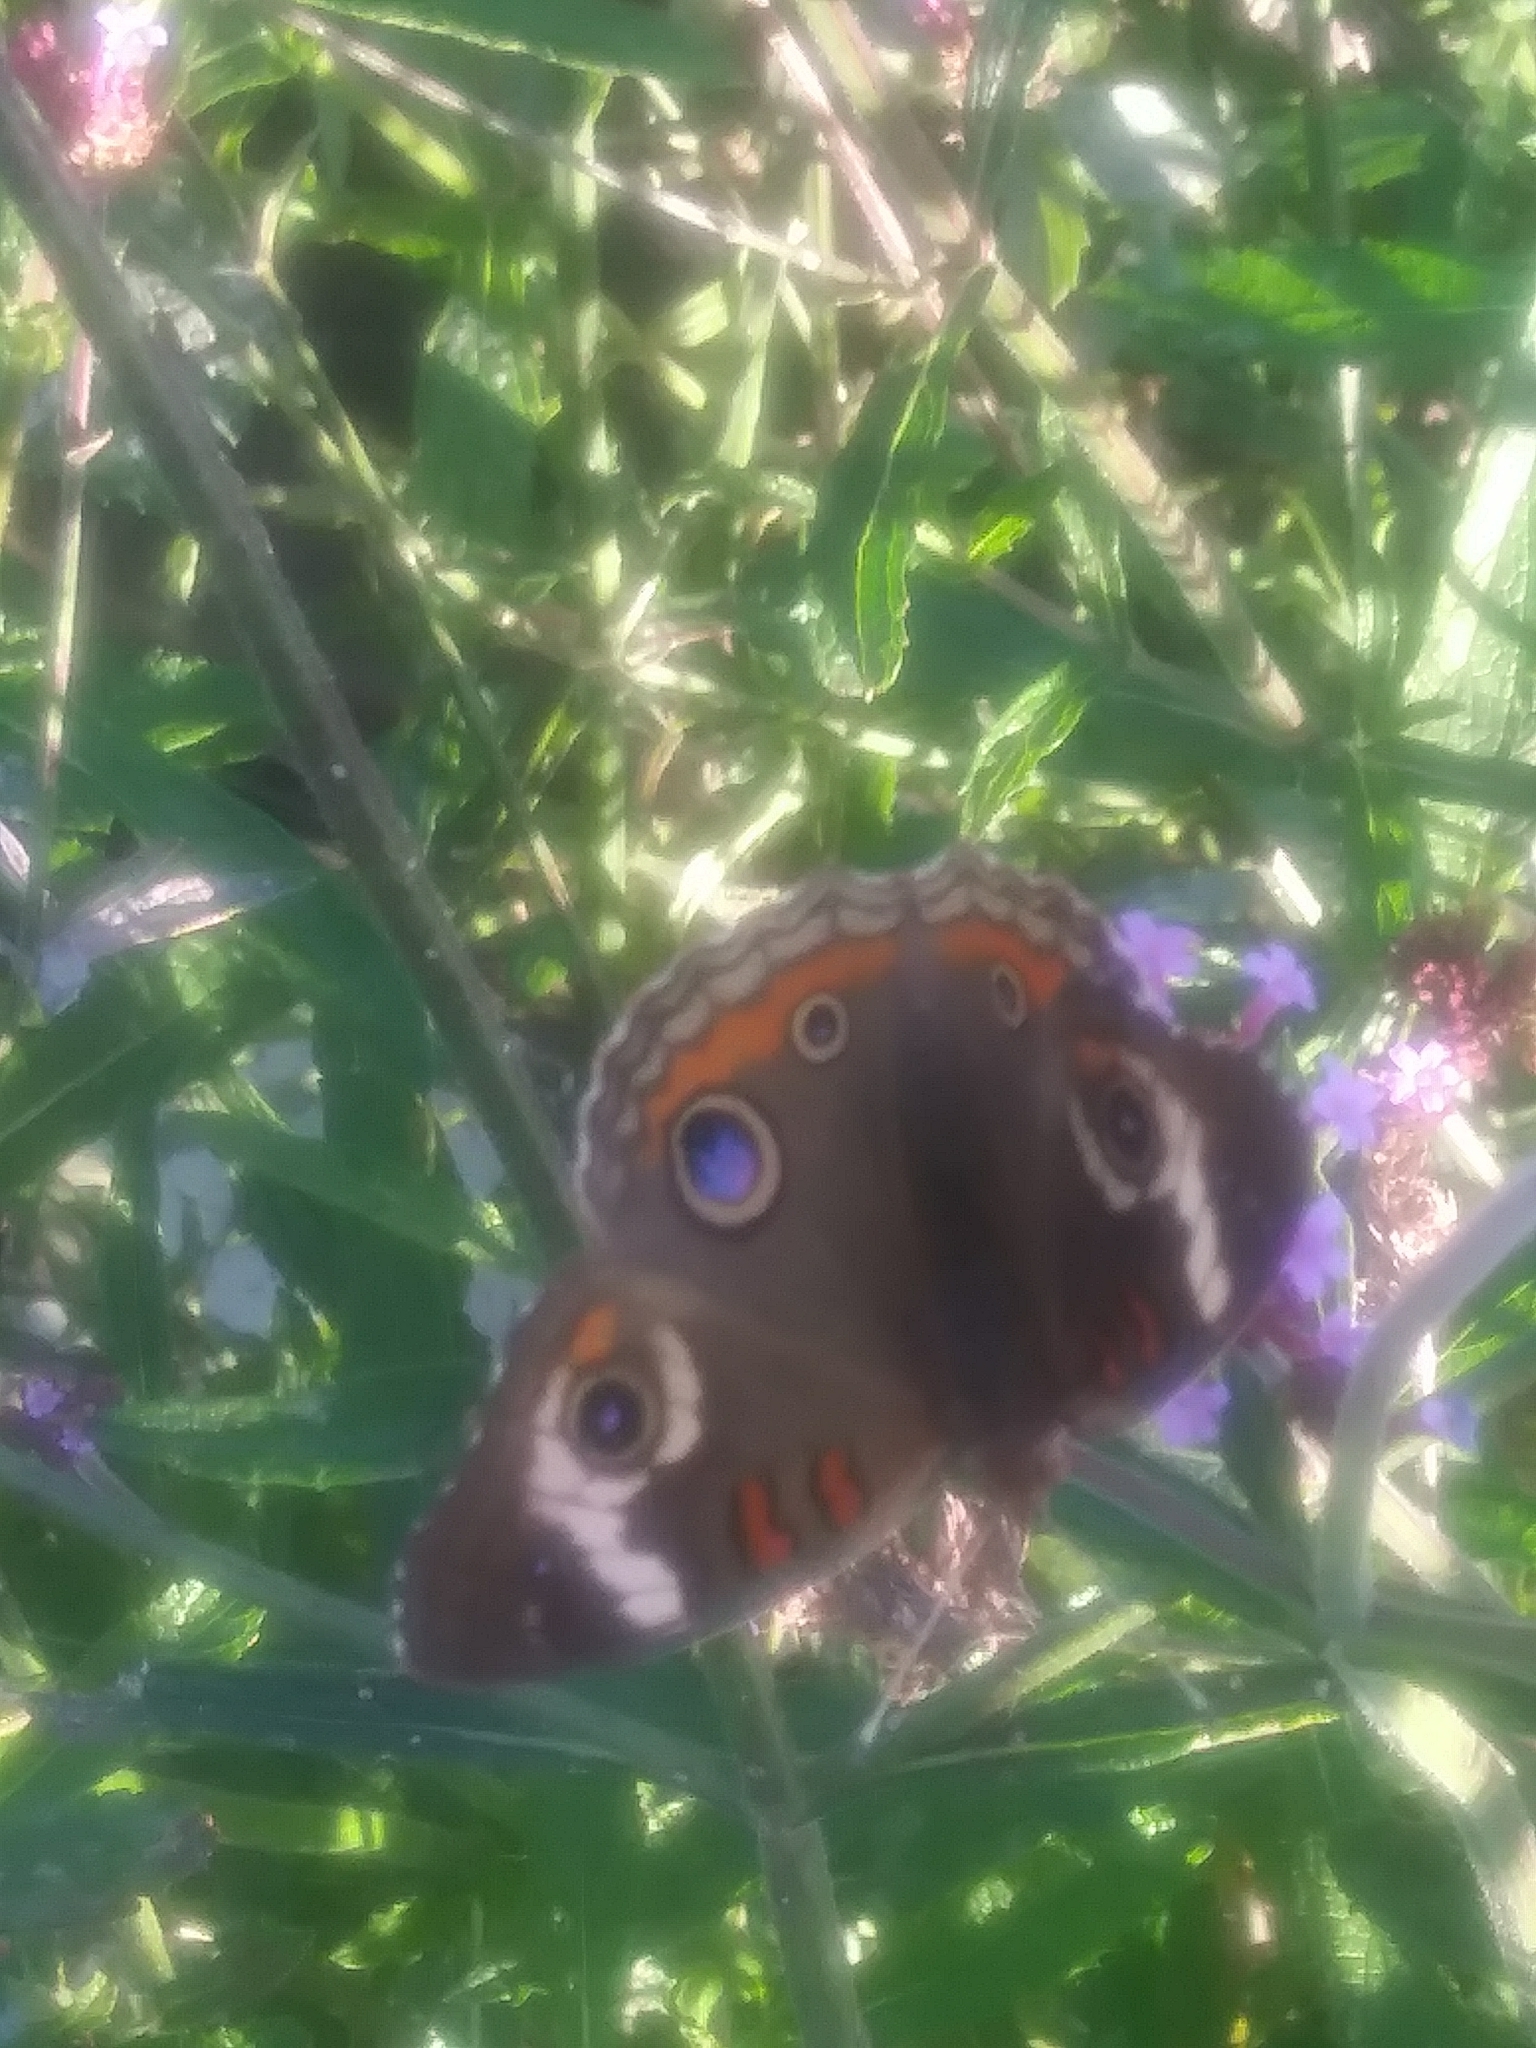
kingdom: Animalia
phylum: Arthropoda
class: Insecta
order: Lepidoptera
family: Nymphalidae
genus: Junonia
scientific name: Junonia coenia
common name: Common buckeye
